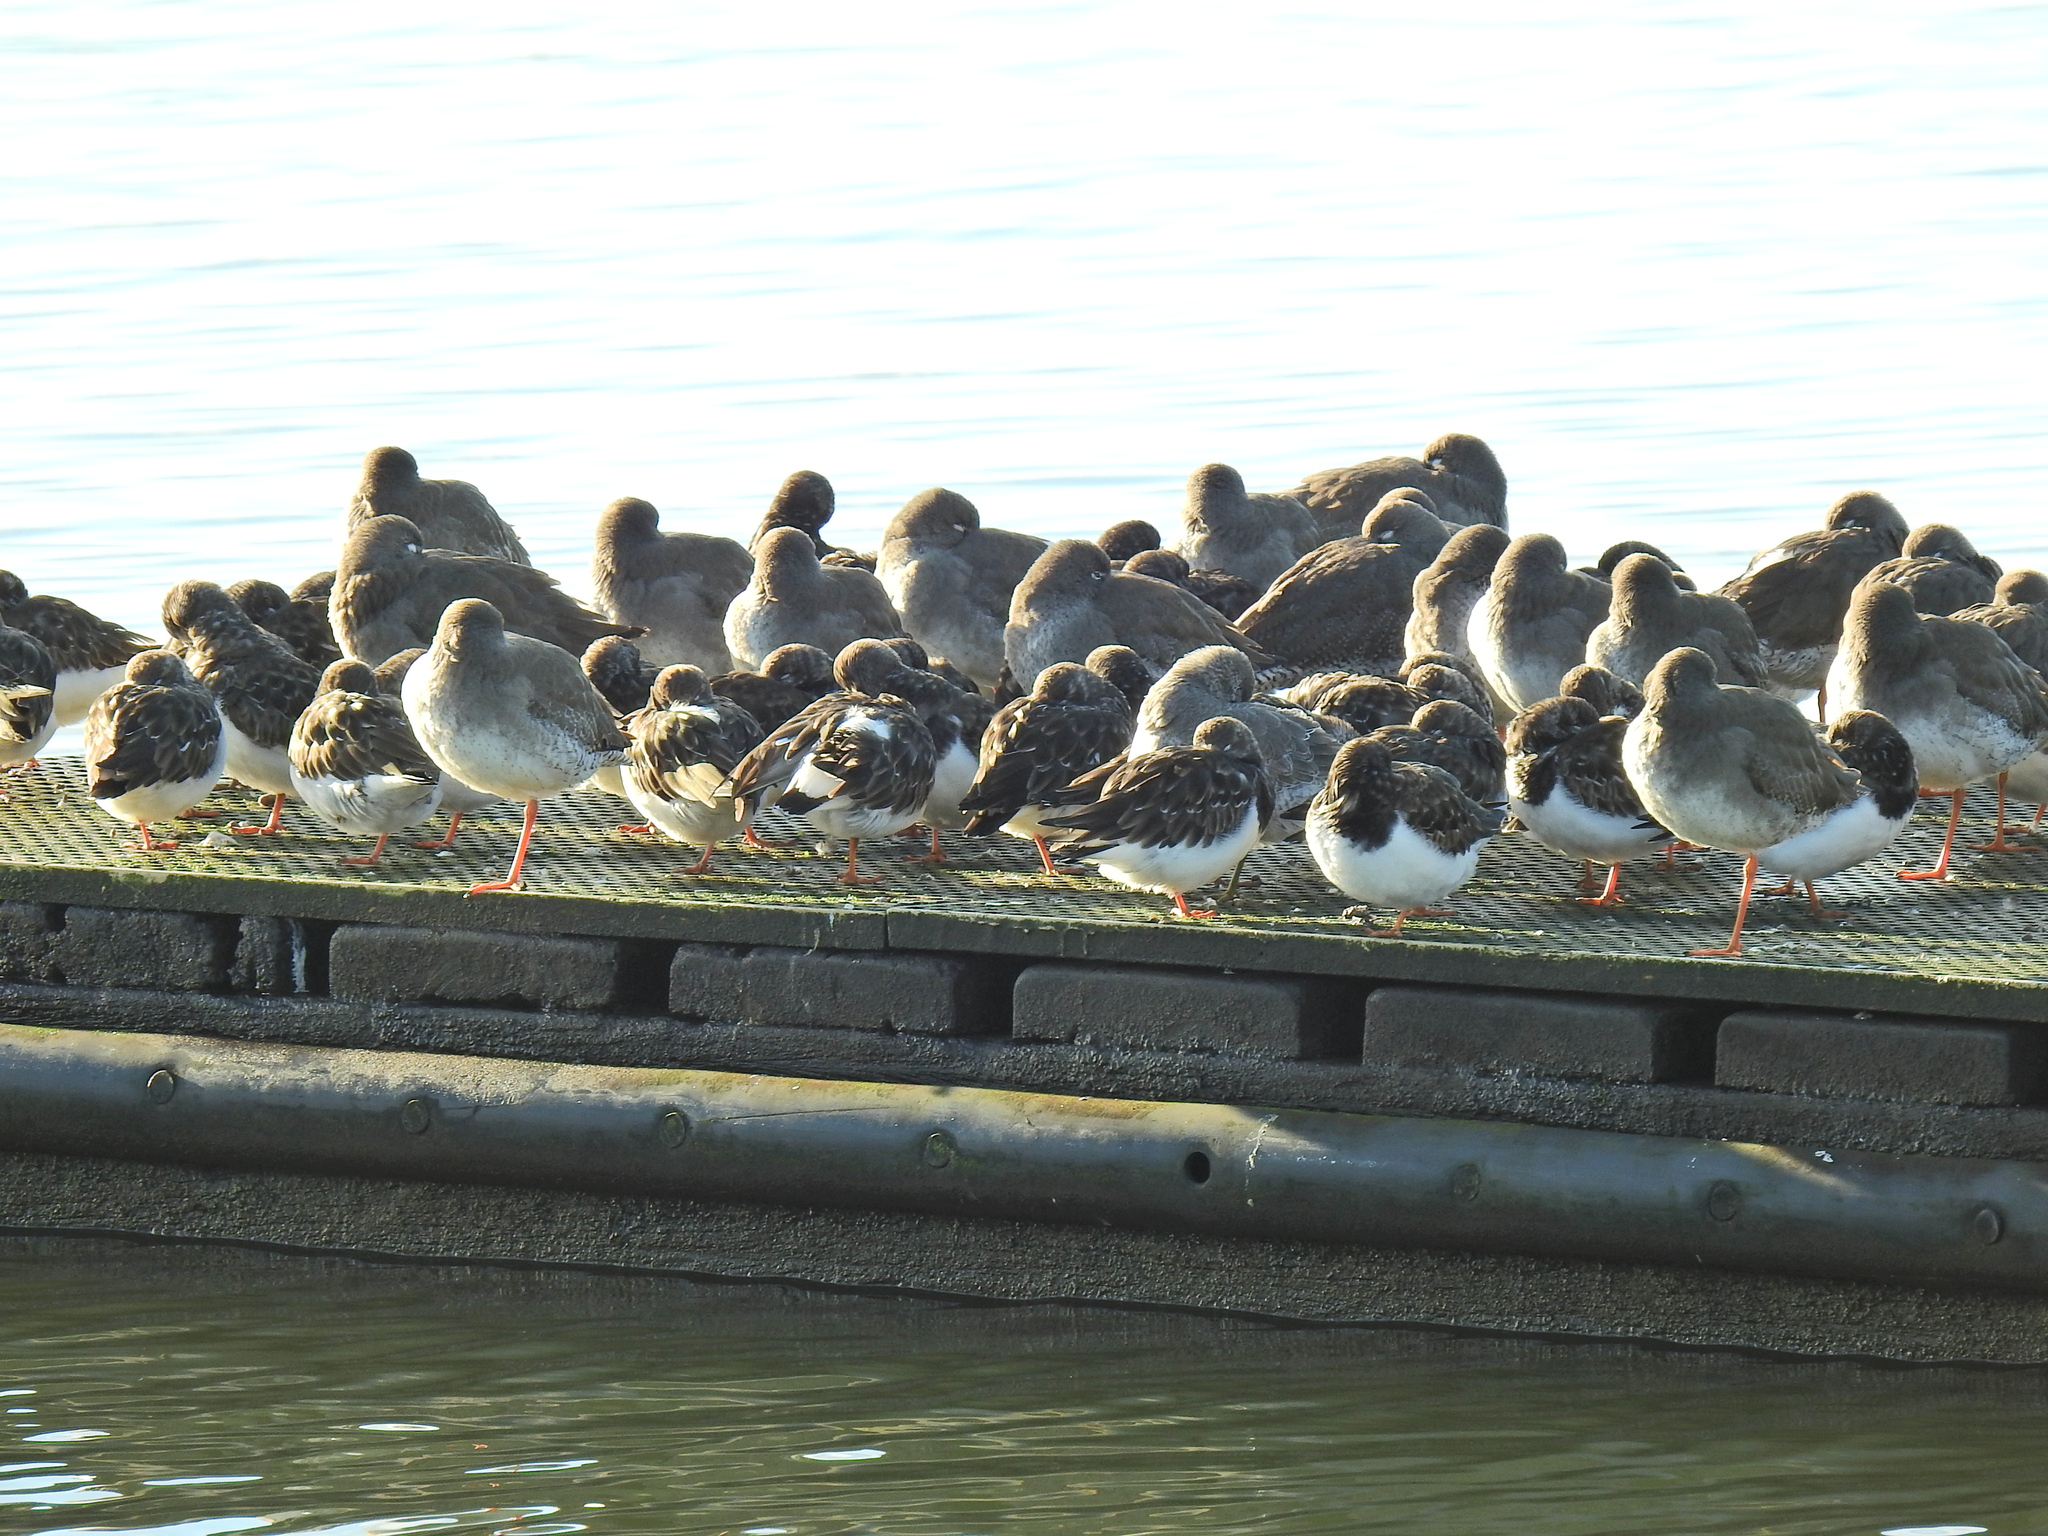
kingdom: Animalia
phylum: Chordata
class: Aves
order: Charadriiformes
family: Scolopacidae
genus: Arenaria
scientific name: Arenaria interpres
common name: Ruddy turnstone
